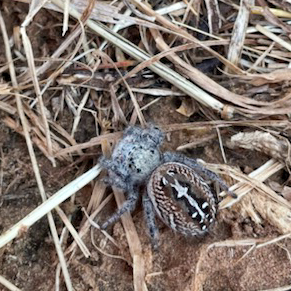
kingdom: Animalia
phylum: Arthropoda
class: Arachnida
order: Araneae
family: Salticidae
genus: Phidippus
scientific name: Phidippus texanus
